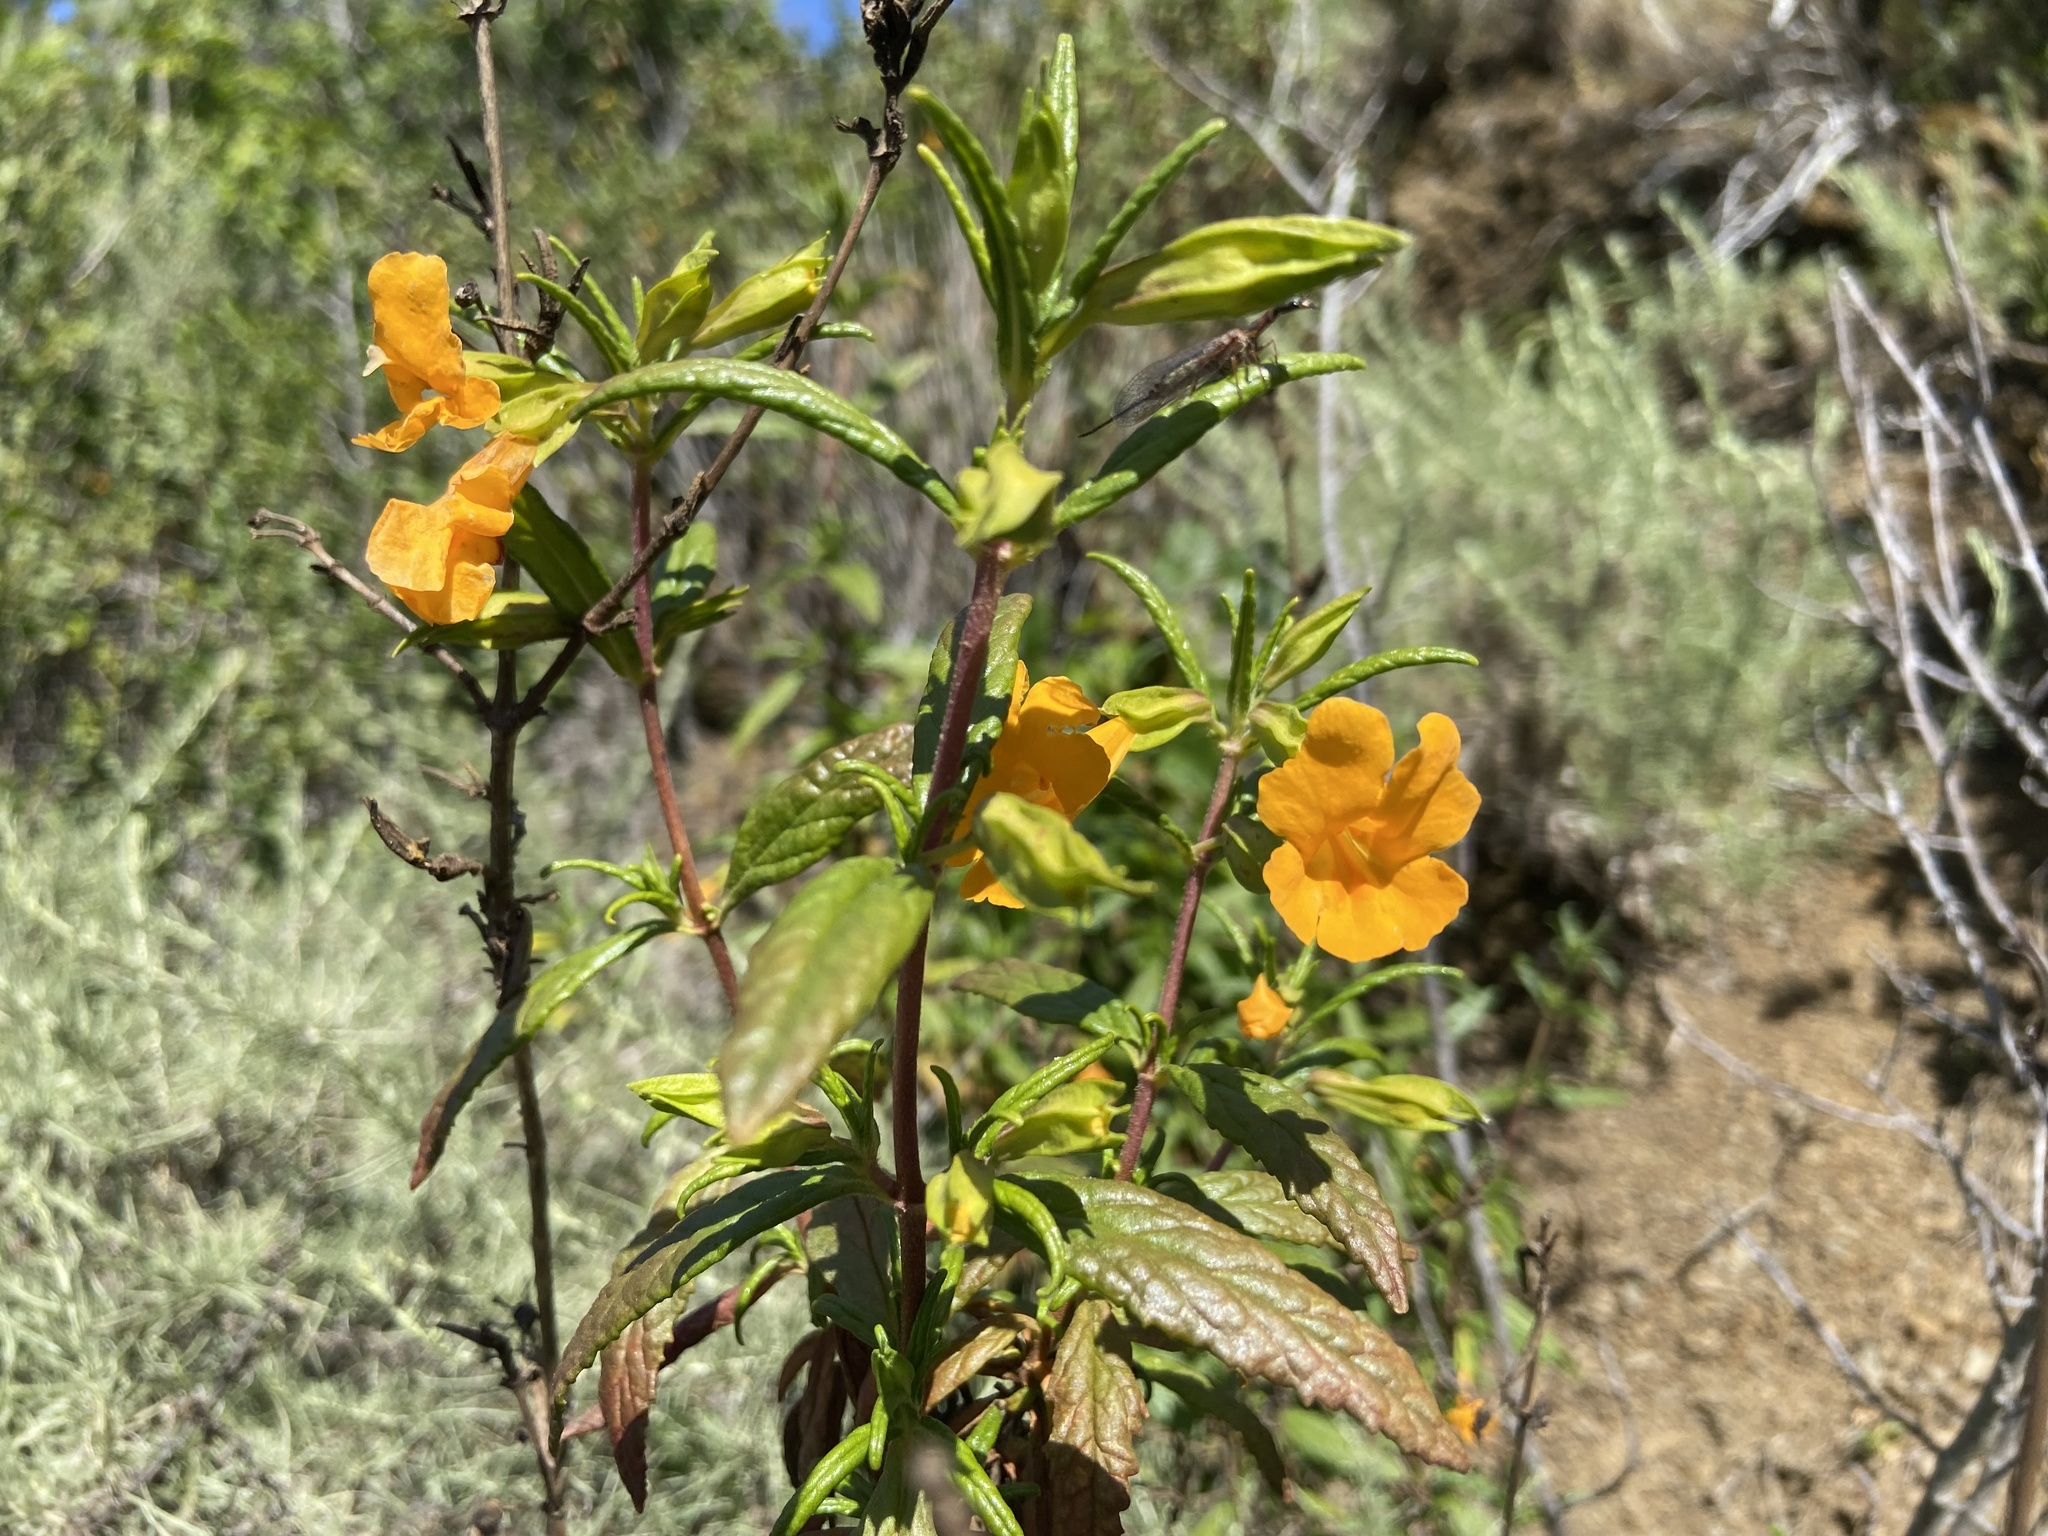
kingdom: Plantae
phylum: Tracheophyta
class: Magnoliopsida
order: Lamiales
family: Phrymaceae
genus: Diplacus
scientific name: Diplacus aurantiacus
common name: Bush monkey-flower
